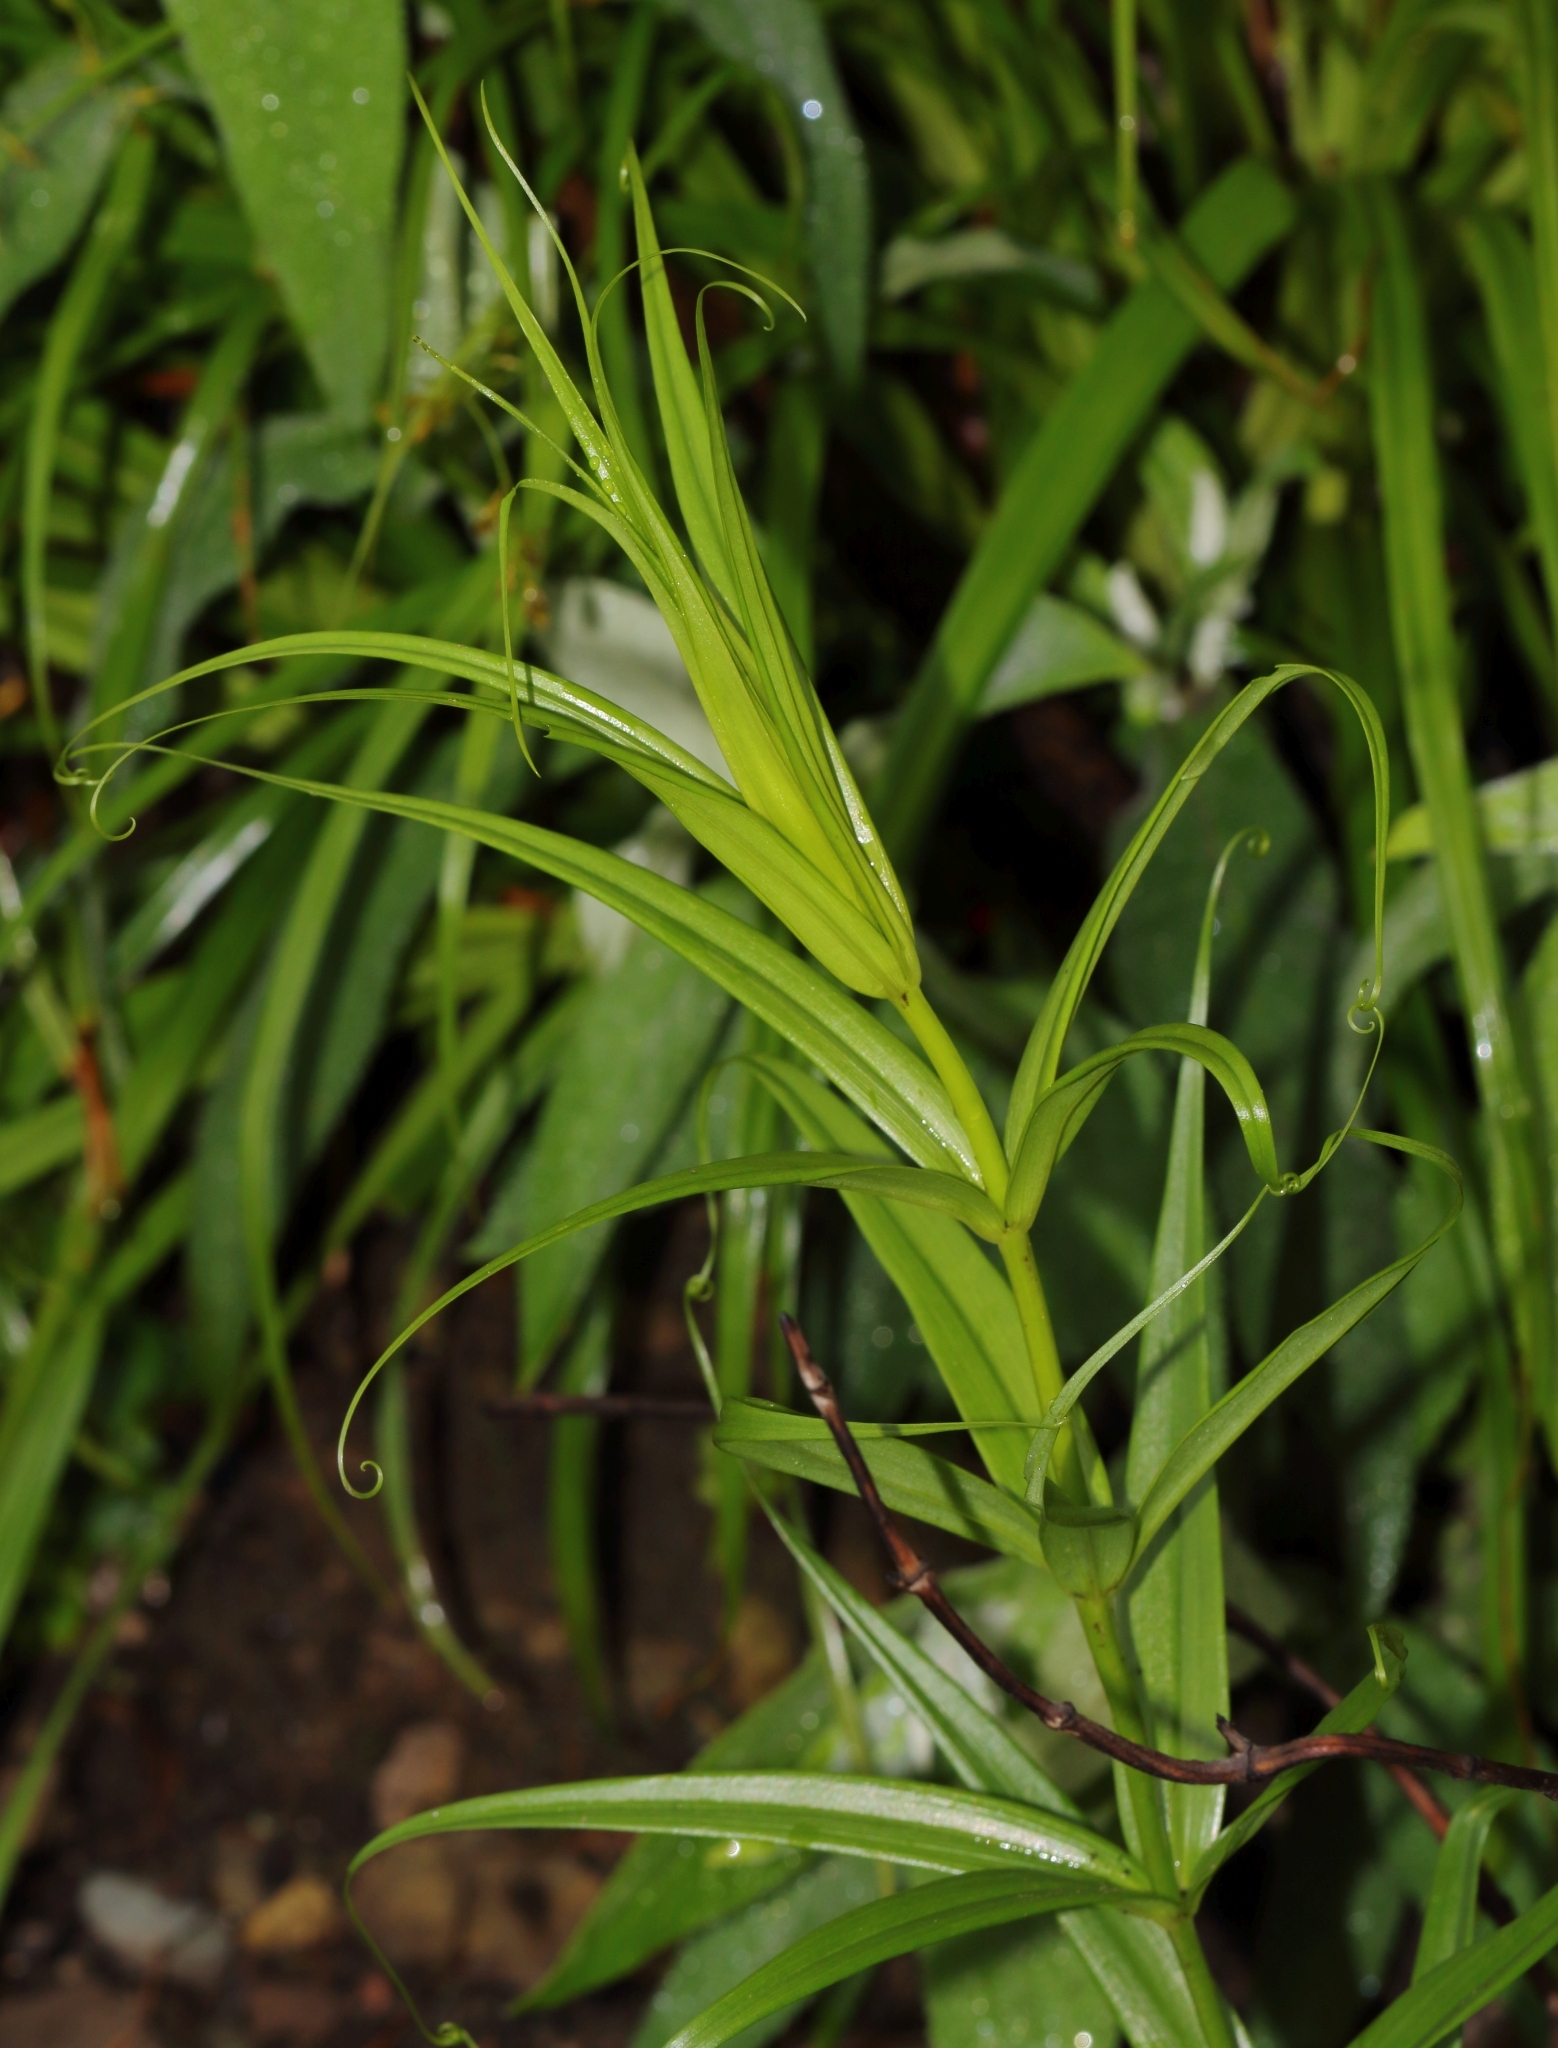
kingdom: Plantae
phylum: Tracheophyta
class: Liliopsida
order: Liliales
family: Colchicaceae
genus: Gloriosa
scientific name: Gloriosa modesta
